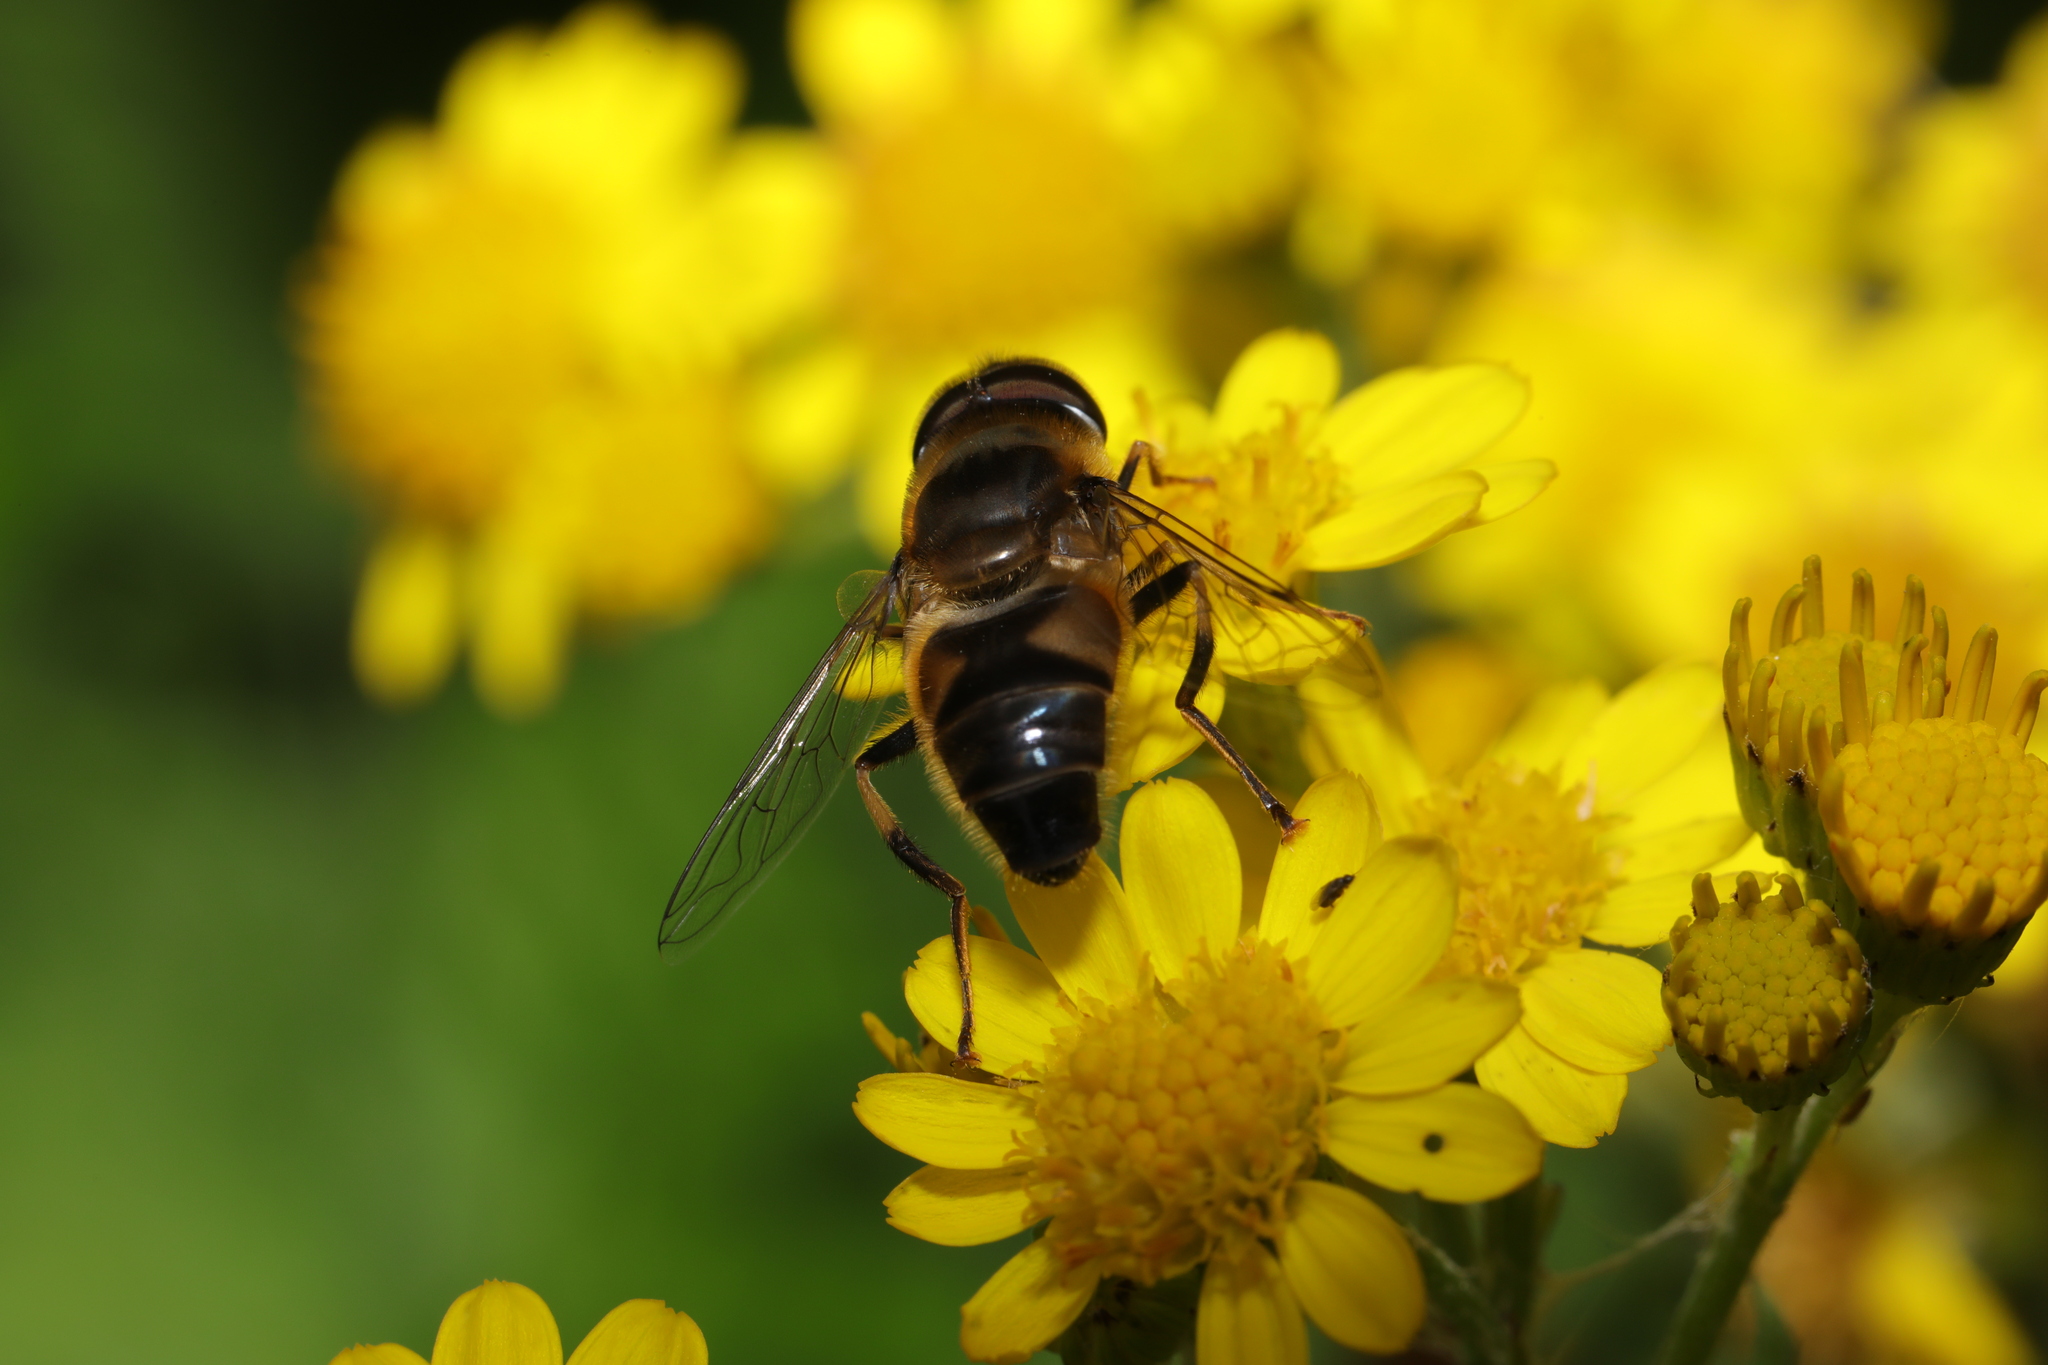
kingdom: Animalia
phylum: Arthropoda
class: Insecta
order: Diptera
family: Syrphidae
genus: Eristalis
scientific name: Eristalis pertinax
